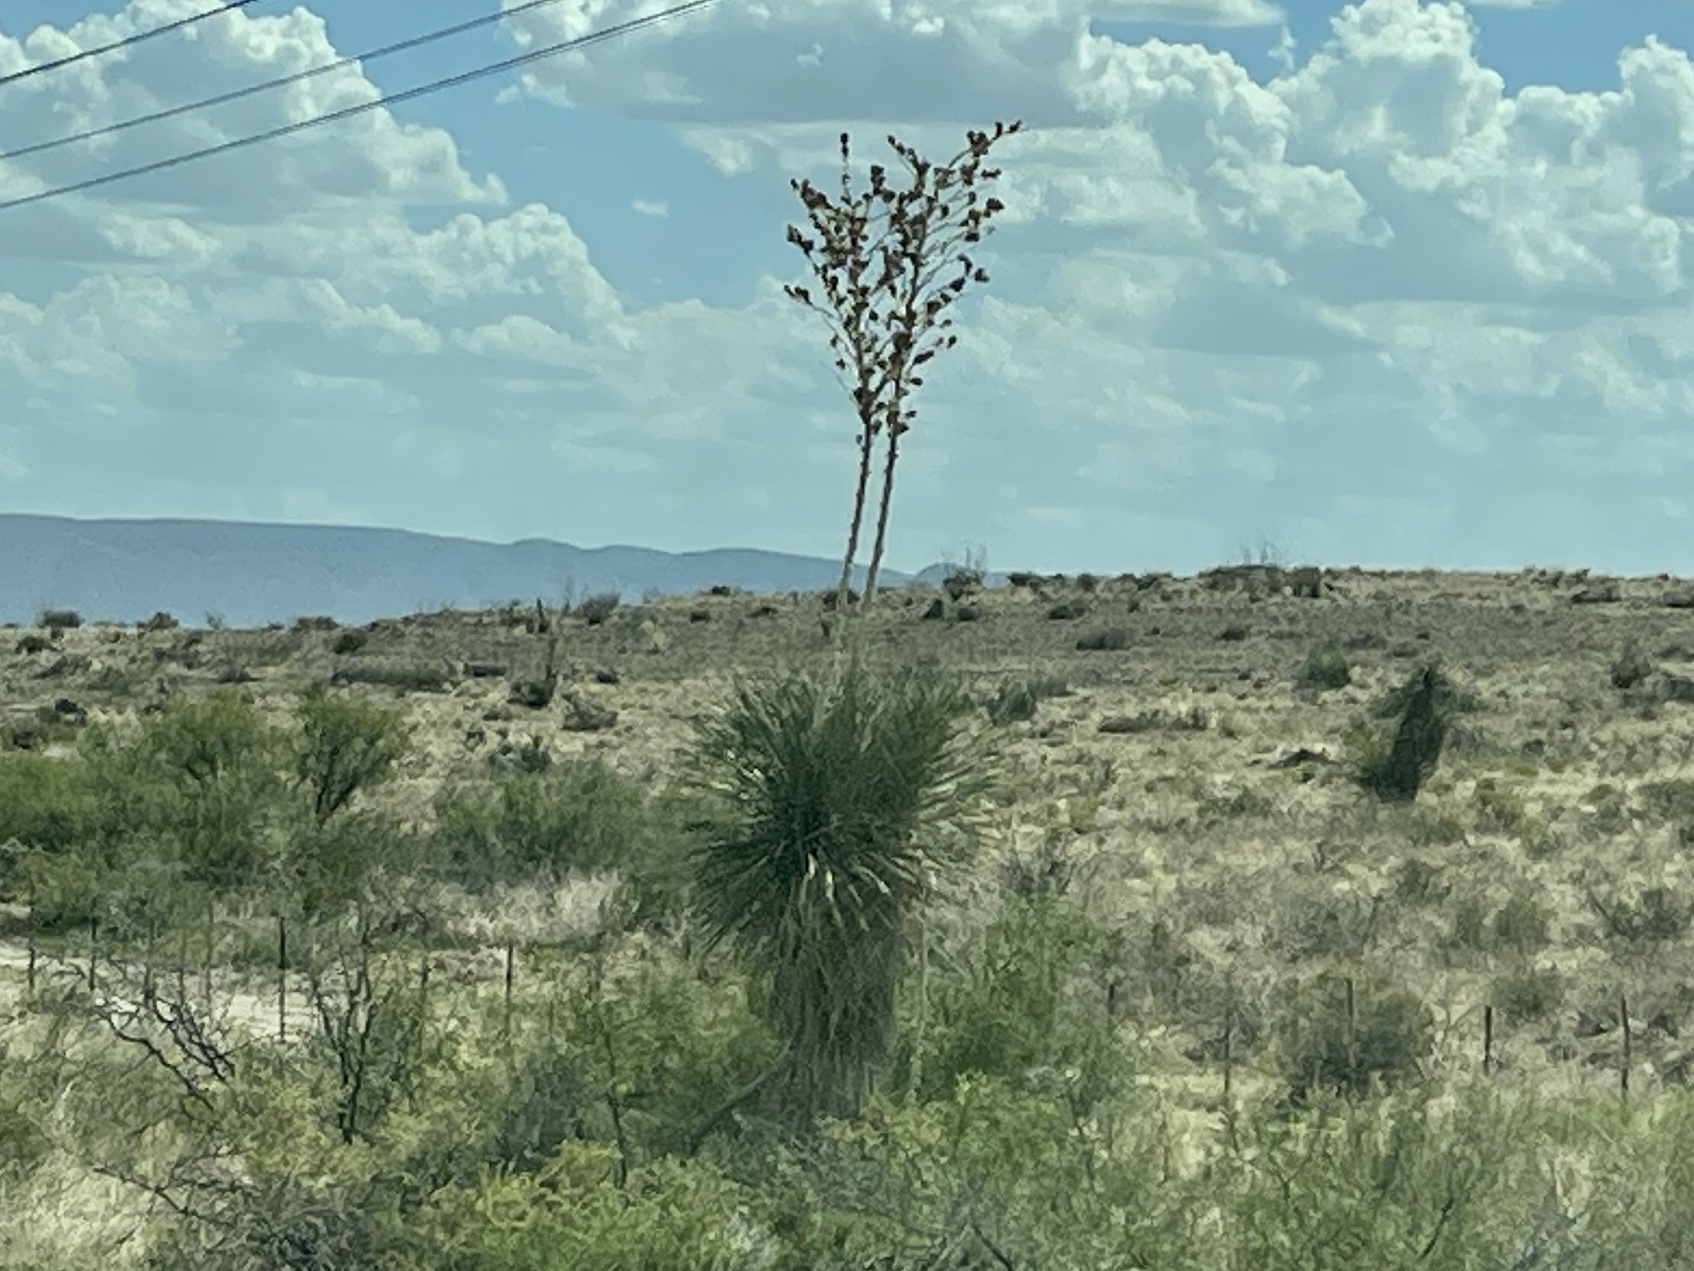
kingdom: Plantae
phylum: Tracheophyta
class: Liliopsida
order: Asparagales
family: Asparagaceae
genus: Yucca
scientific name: Yucca elata
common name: Palmella
